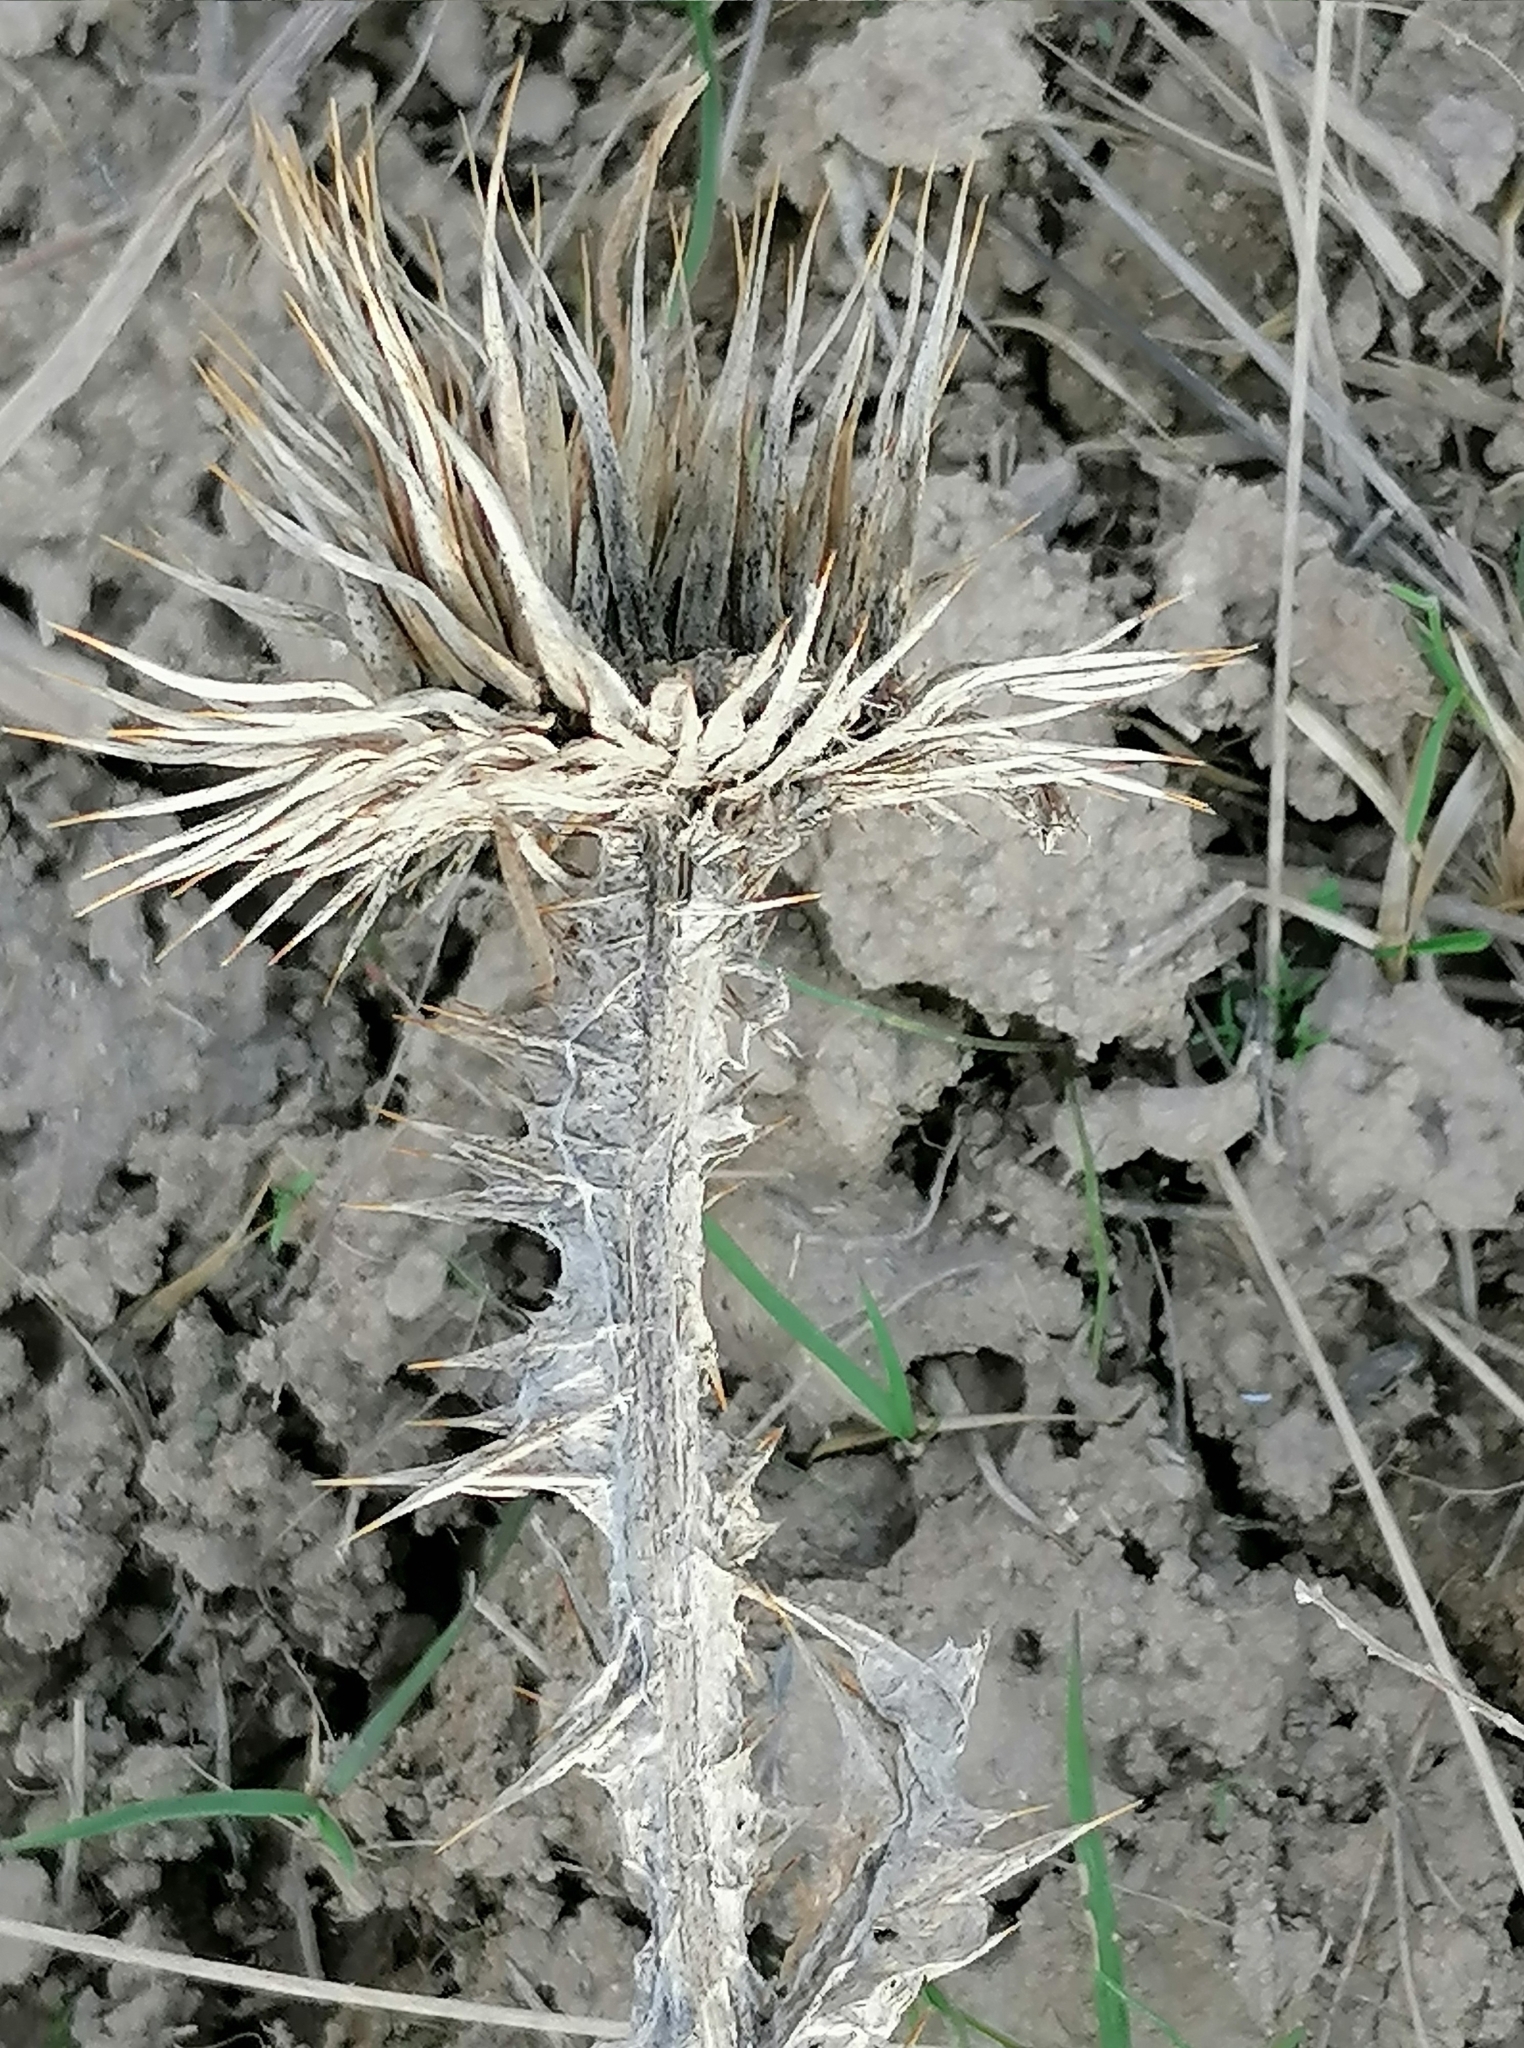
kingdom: Plantae
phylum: Tracheophyta
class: Magnoliopsida
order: Asterales
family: Asteraceae
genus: Onopordum
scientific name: Onopordum acanthium
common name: Scotch thistle
